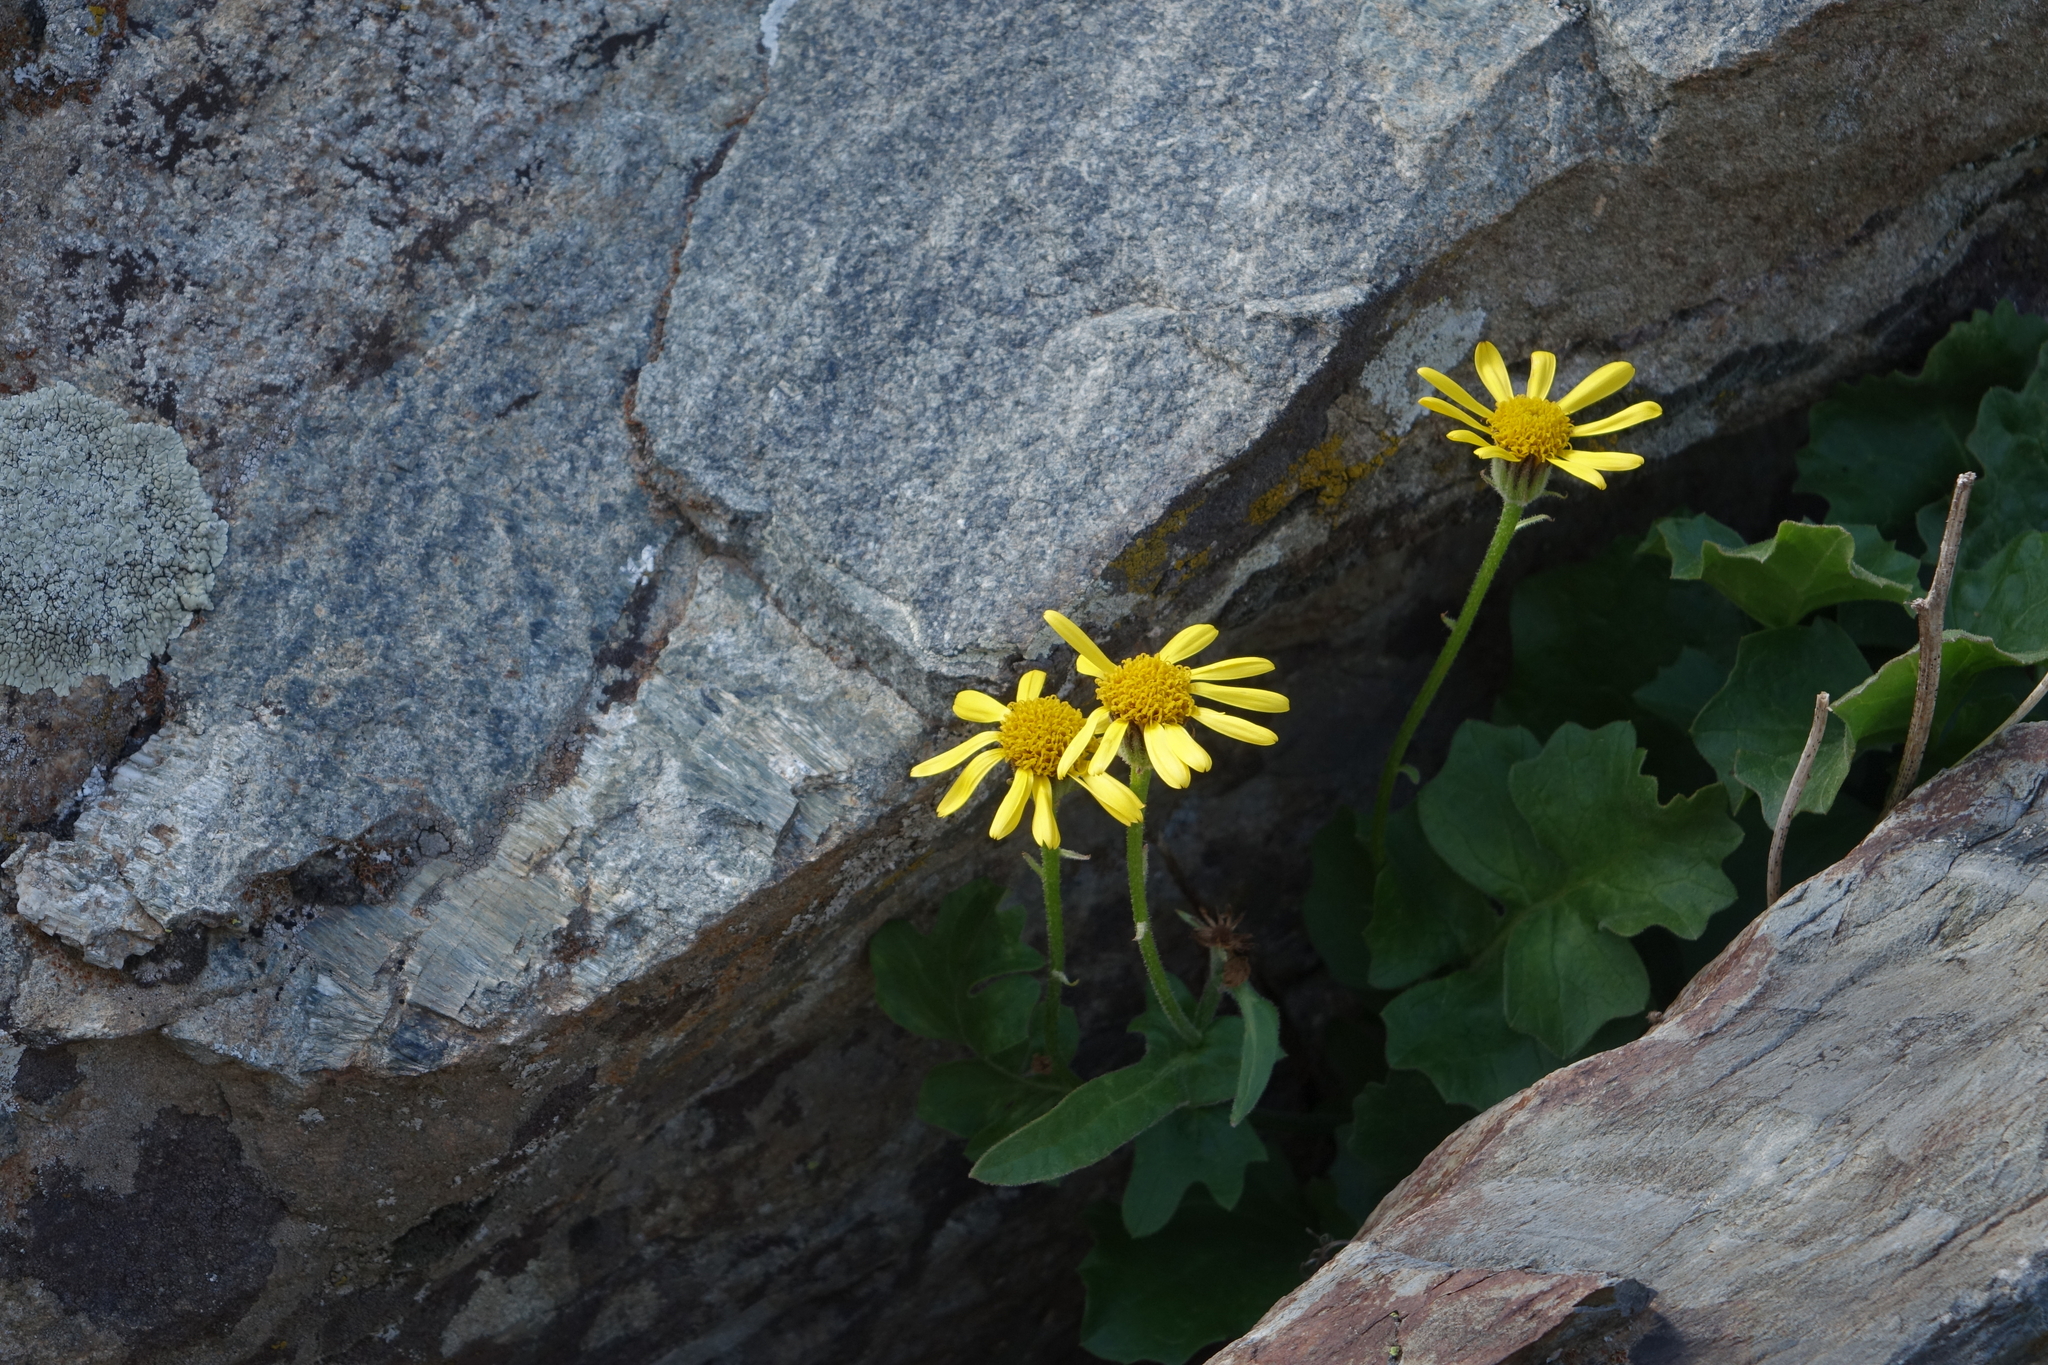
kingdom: Plantae
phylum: Tracheophyta
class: Magnoliopsida
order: Asterales
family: Asteraceae
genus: Turanecio
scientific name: Turanecio taraxacifolius
